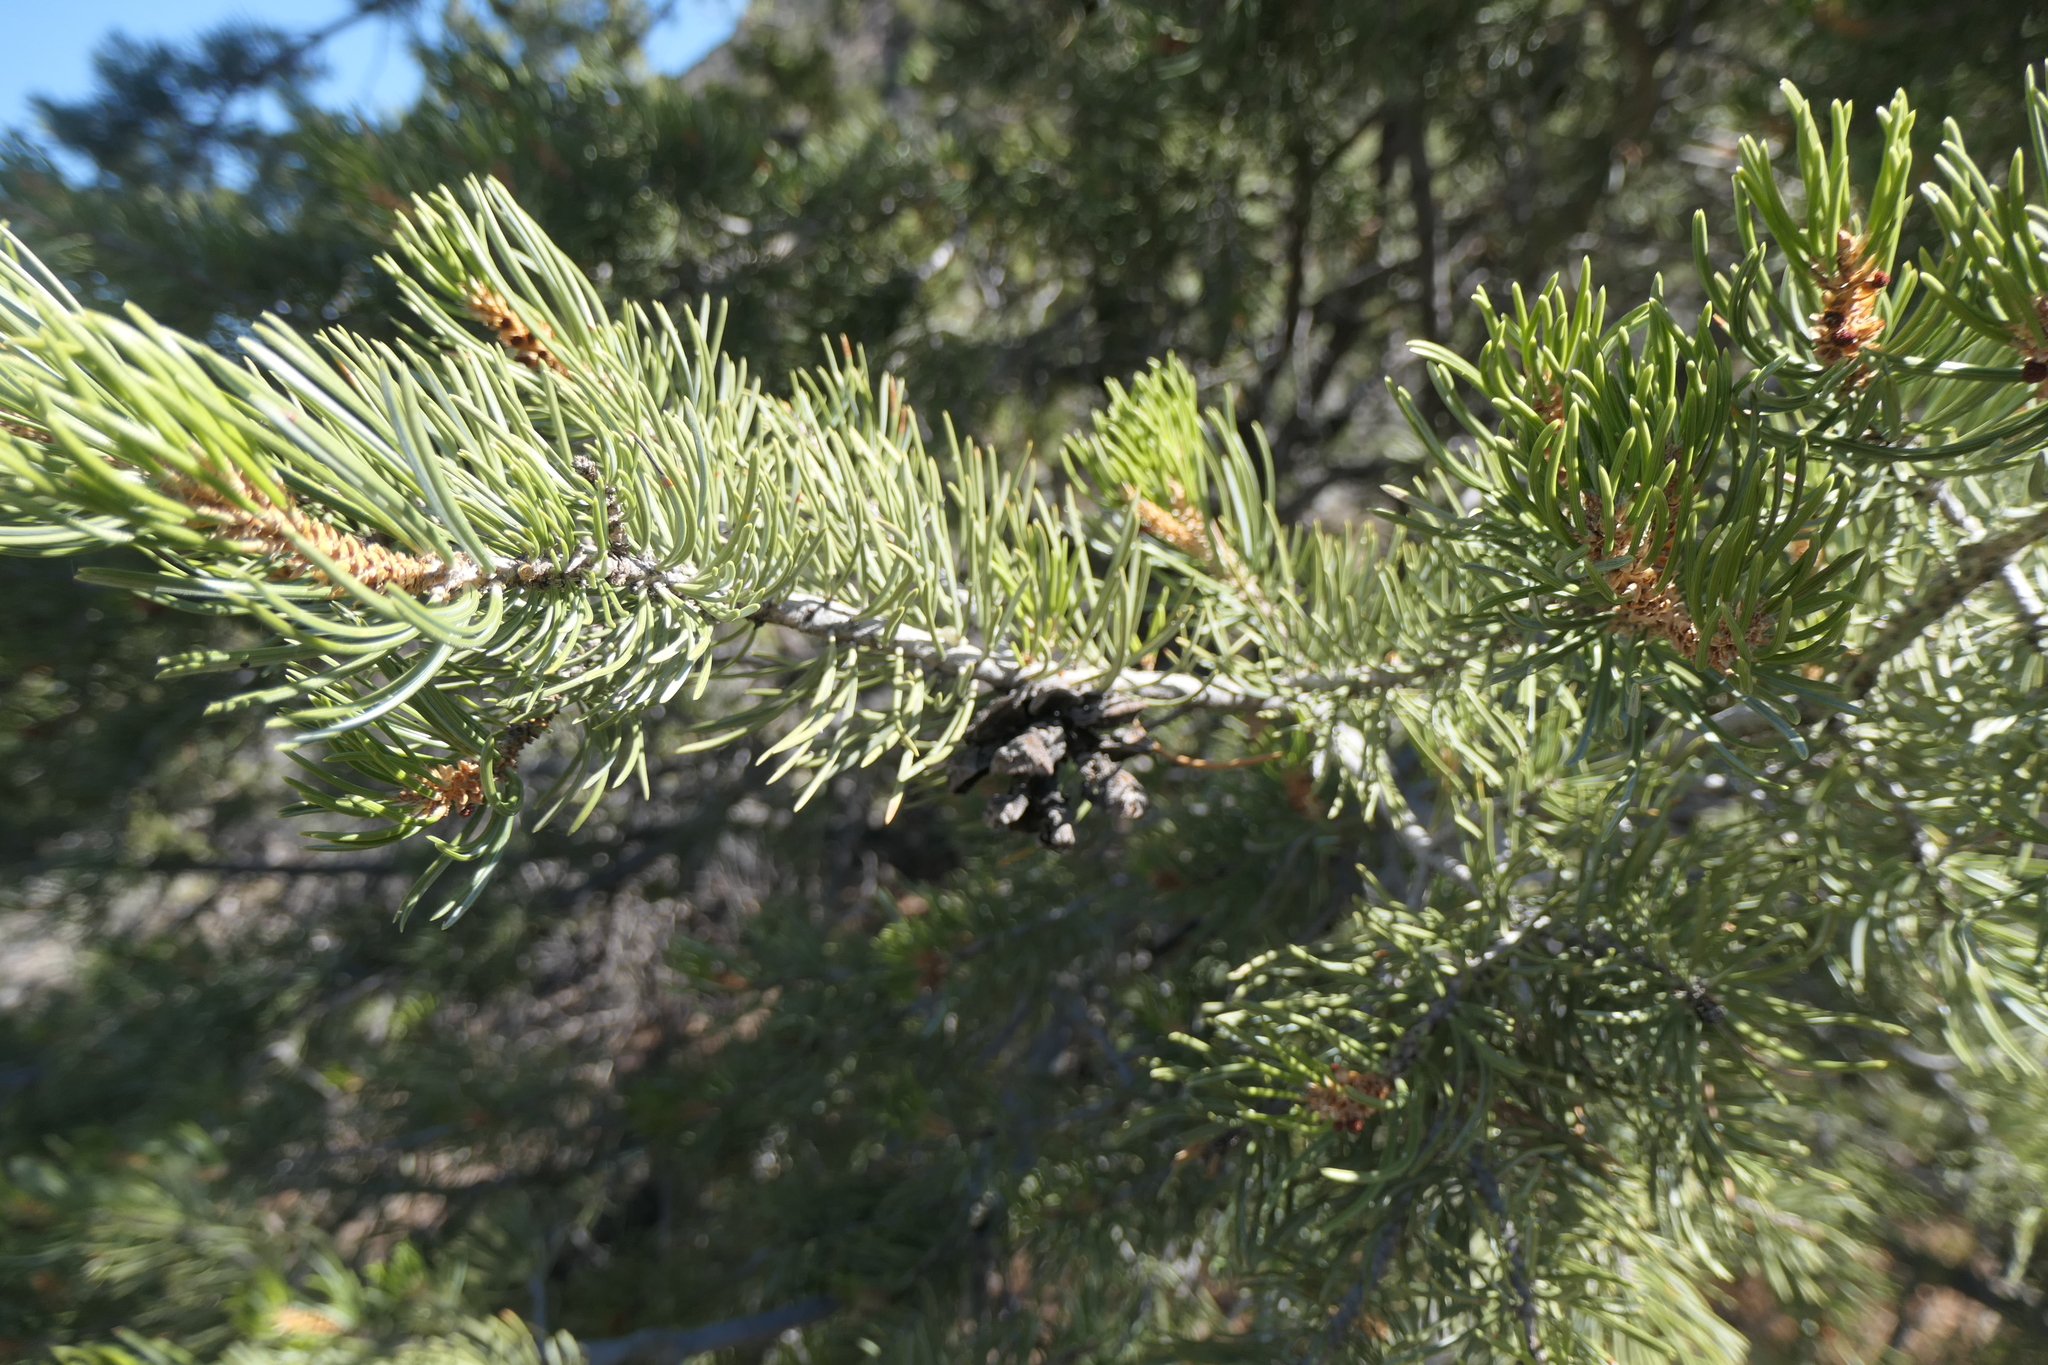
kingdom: Plantae
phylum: Tracheophyta
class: Pinopsida
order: Pinales
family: Pinaceae
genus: Pinus
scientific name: Pinus edulis
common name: Colorado pinyon
